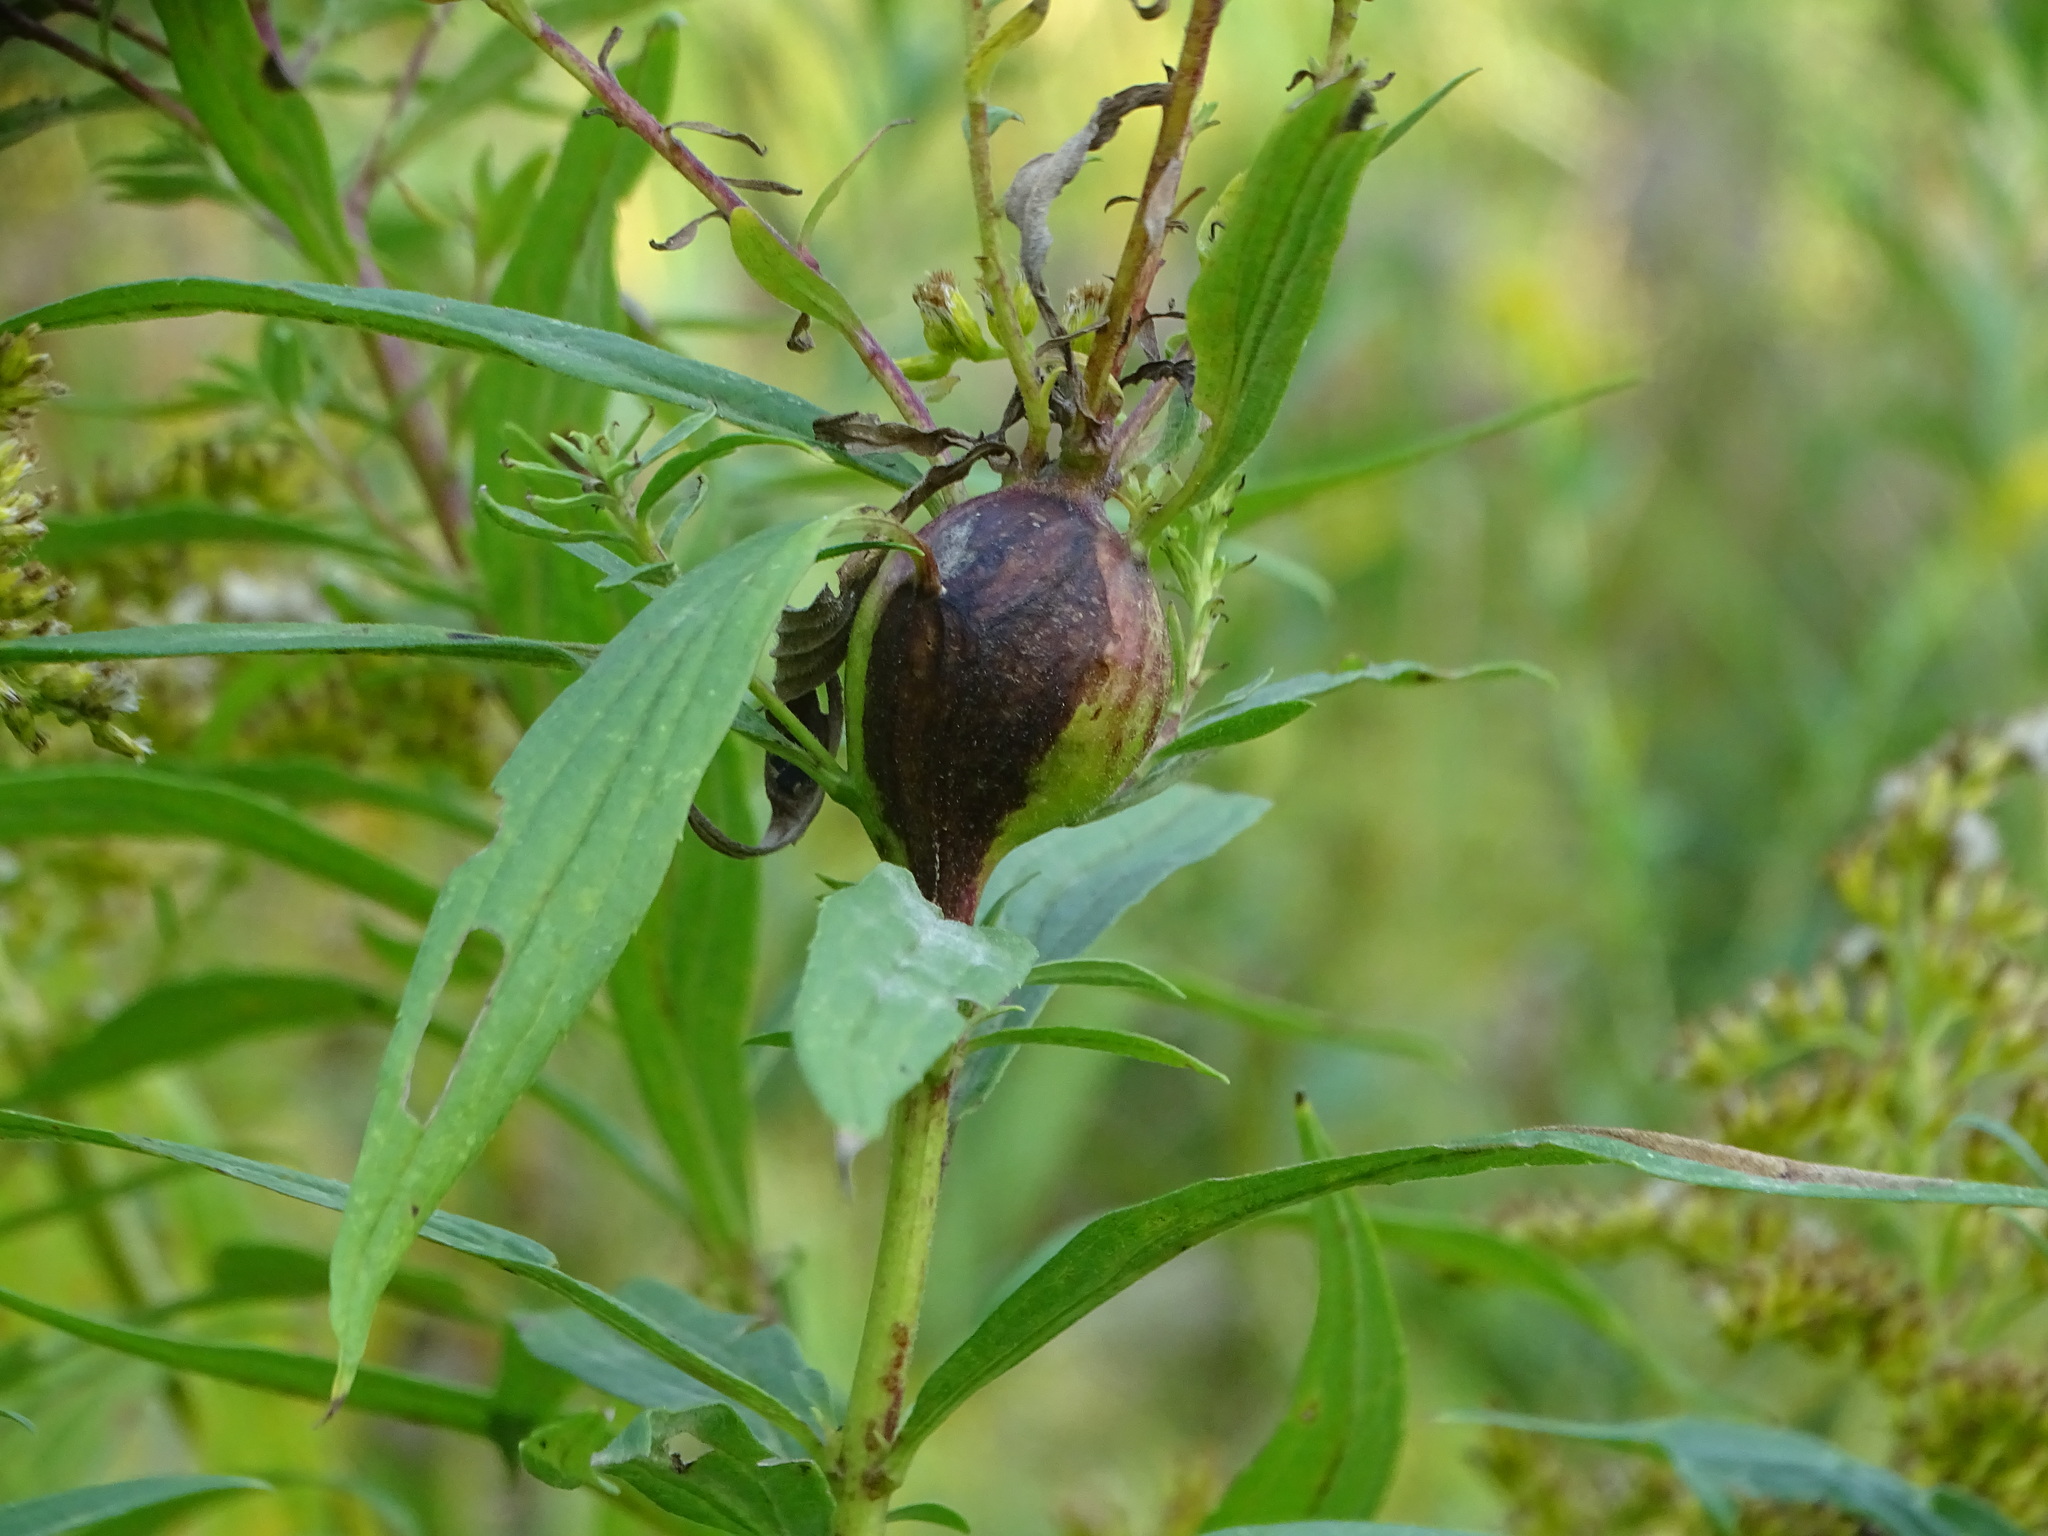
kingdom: Animalia
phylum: Arthropoda
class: Insecta
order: Diptera
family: Tephritidae
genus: Eurosta
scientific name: Eurosta solidaginis
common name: Goldenrod gall fly
